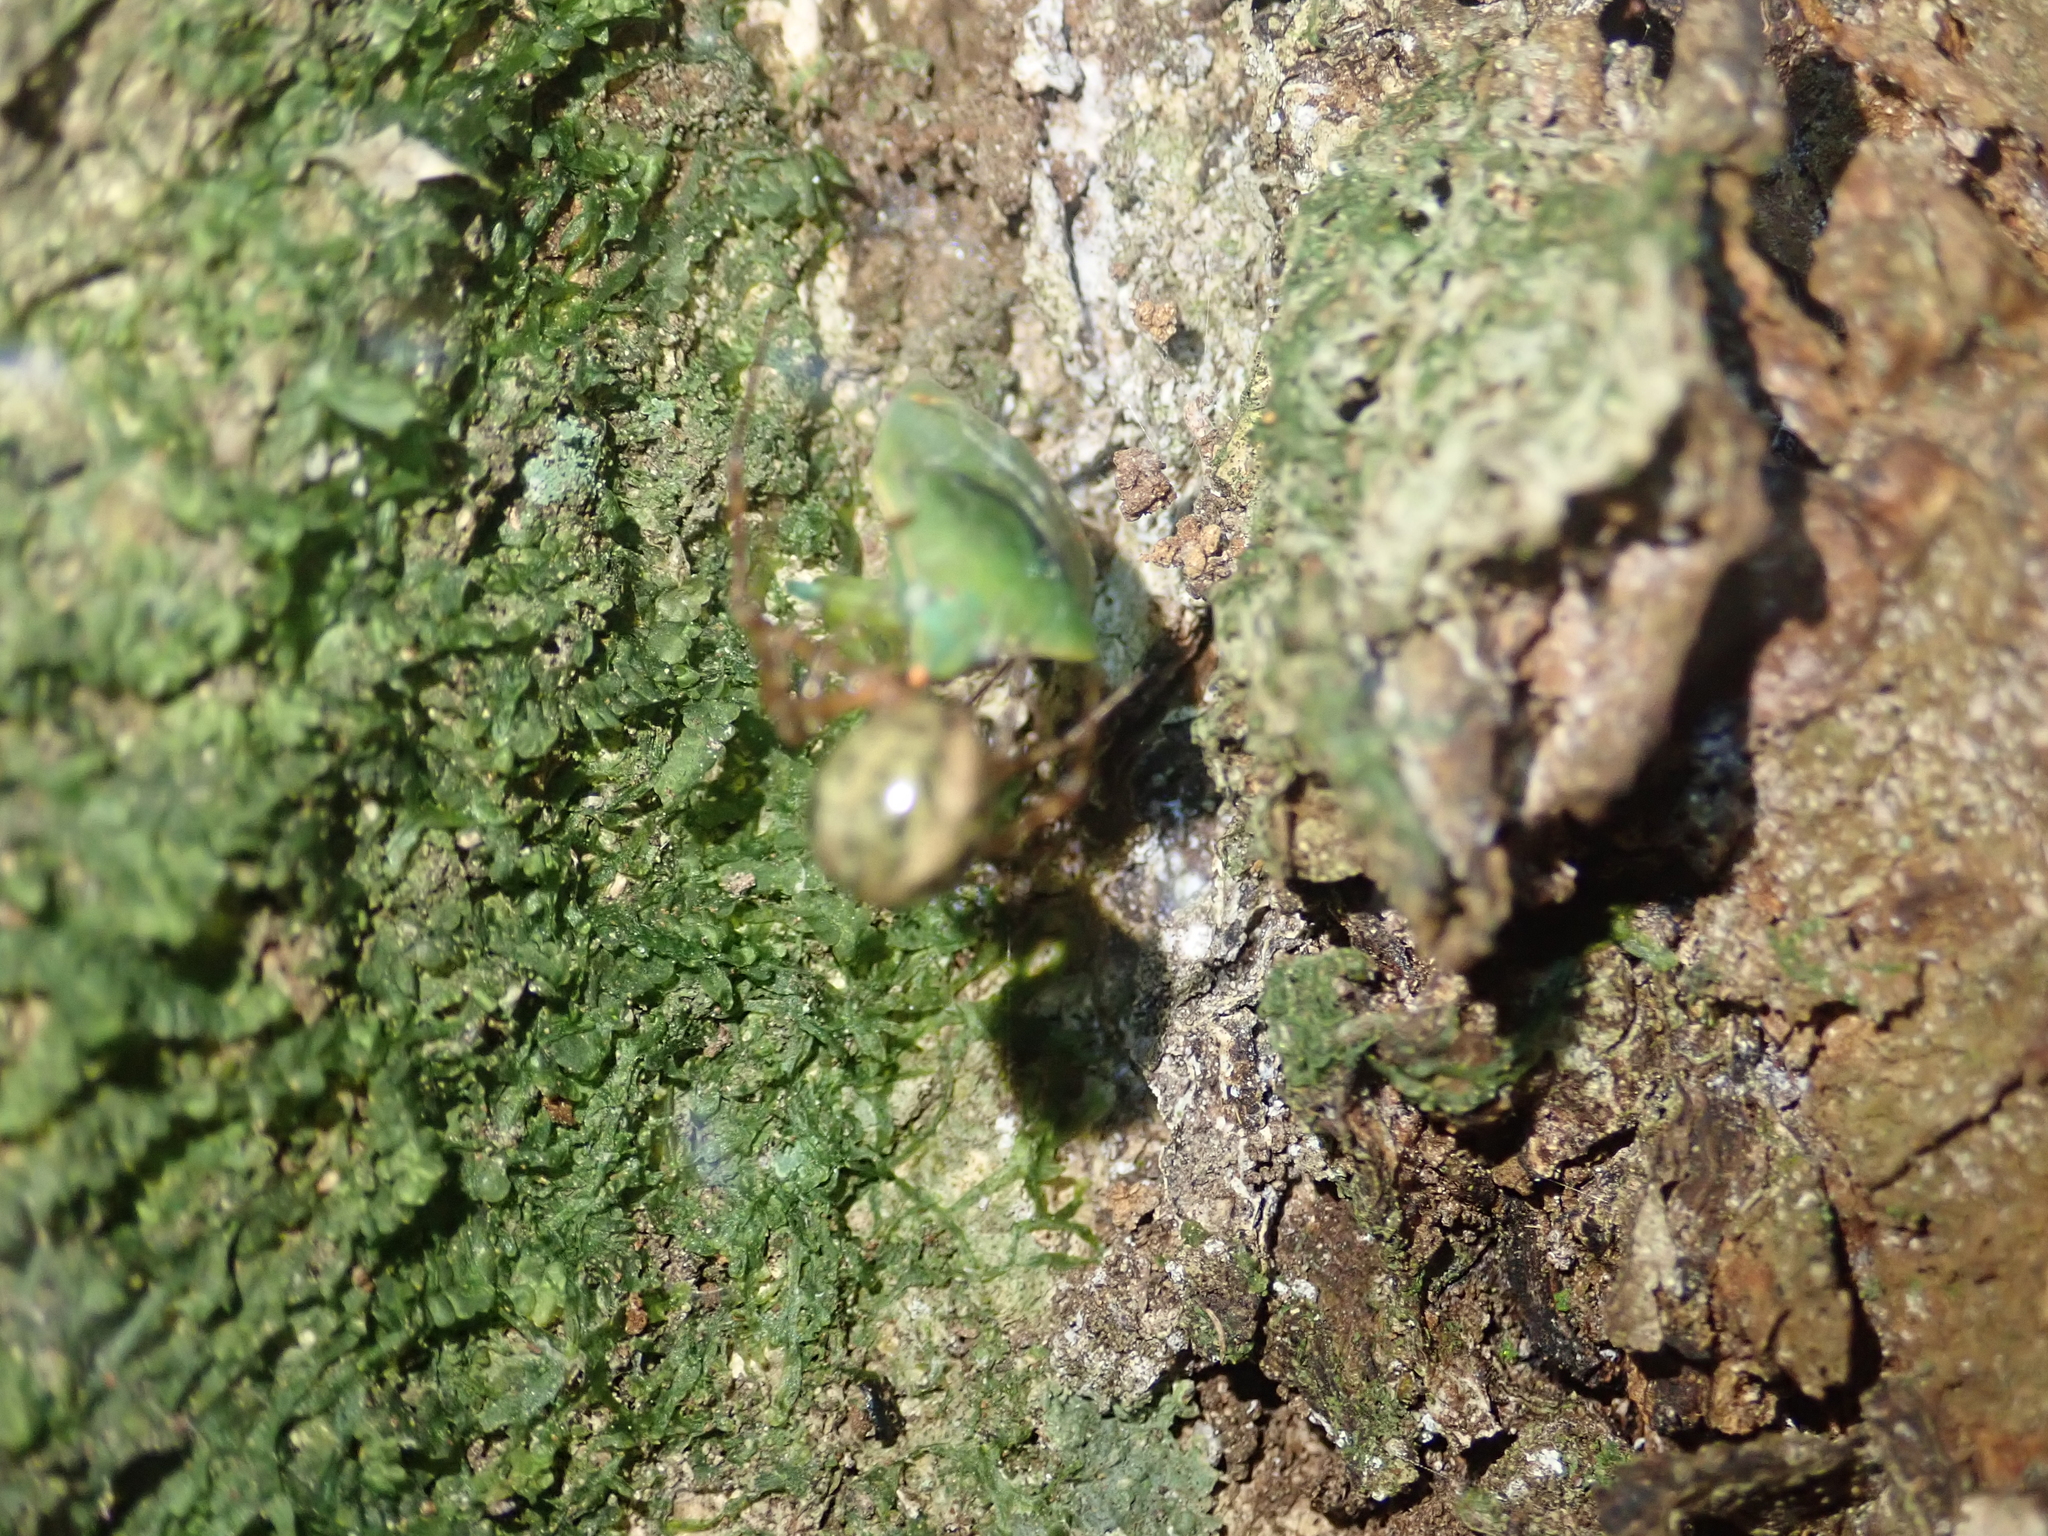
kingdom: Animalia
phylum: Arthropoda
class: Insecta
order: Hemiptera
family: Pentatomidae
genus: Nezara
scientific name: Nezara viridula
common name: Southern green stink bug
